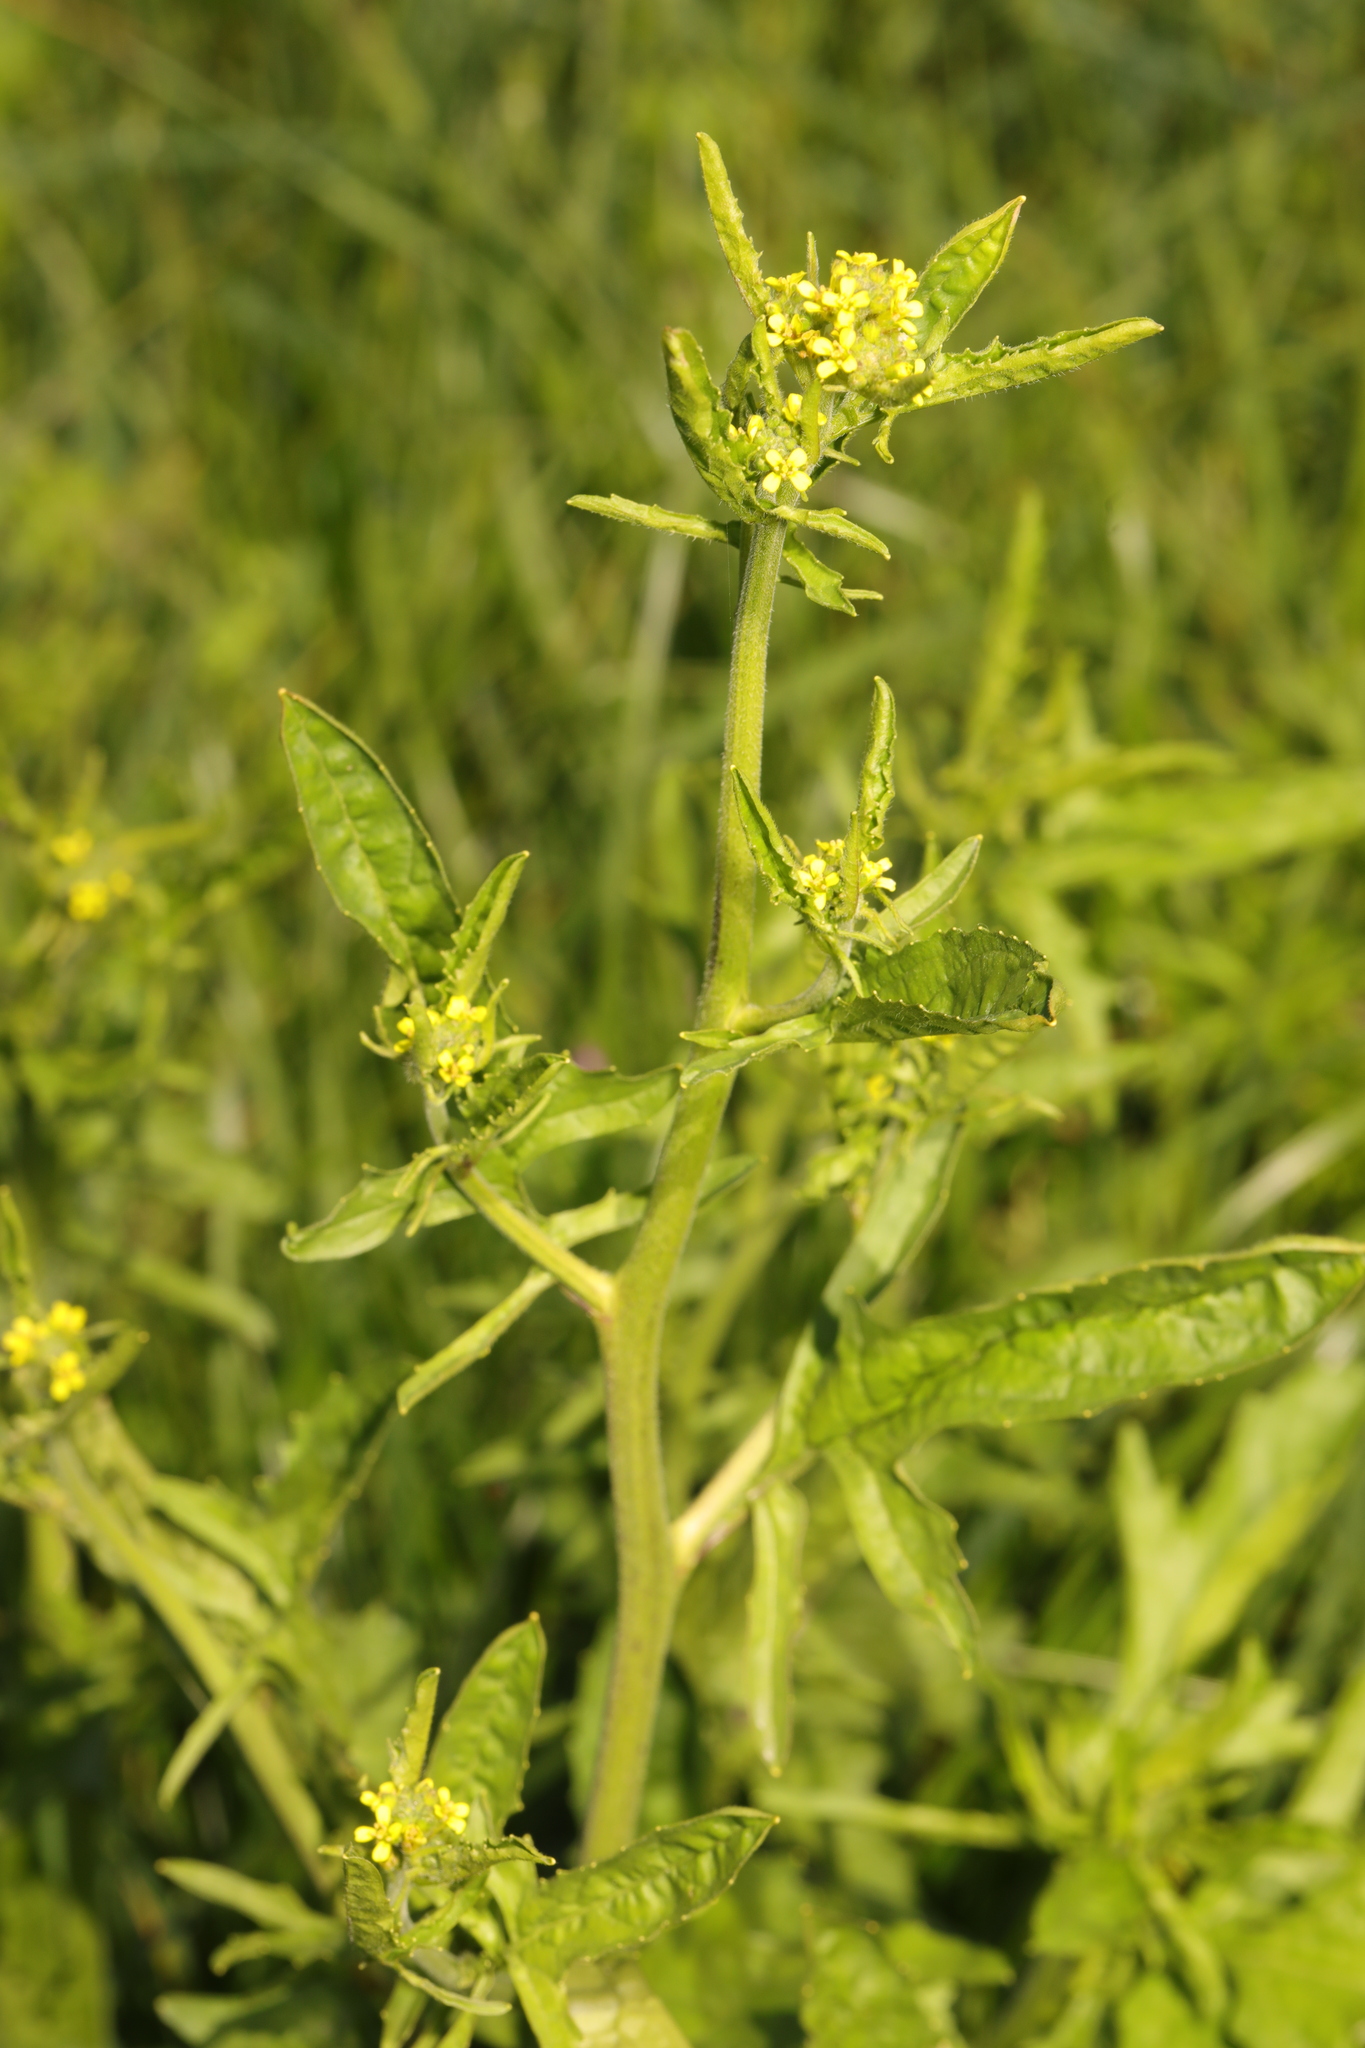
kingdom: Plantae
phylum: Tracheophyta
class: Magnoliopsida
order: Brassicales
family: Brassicaceae
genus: Sisymbrium
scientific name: Sisymbrium officinale
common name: Hedge mustard
